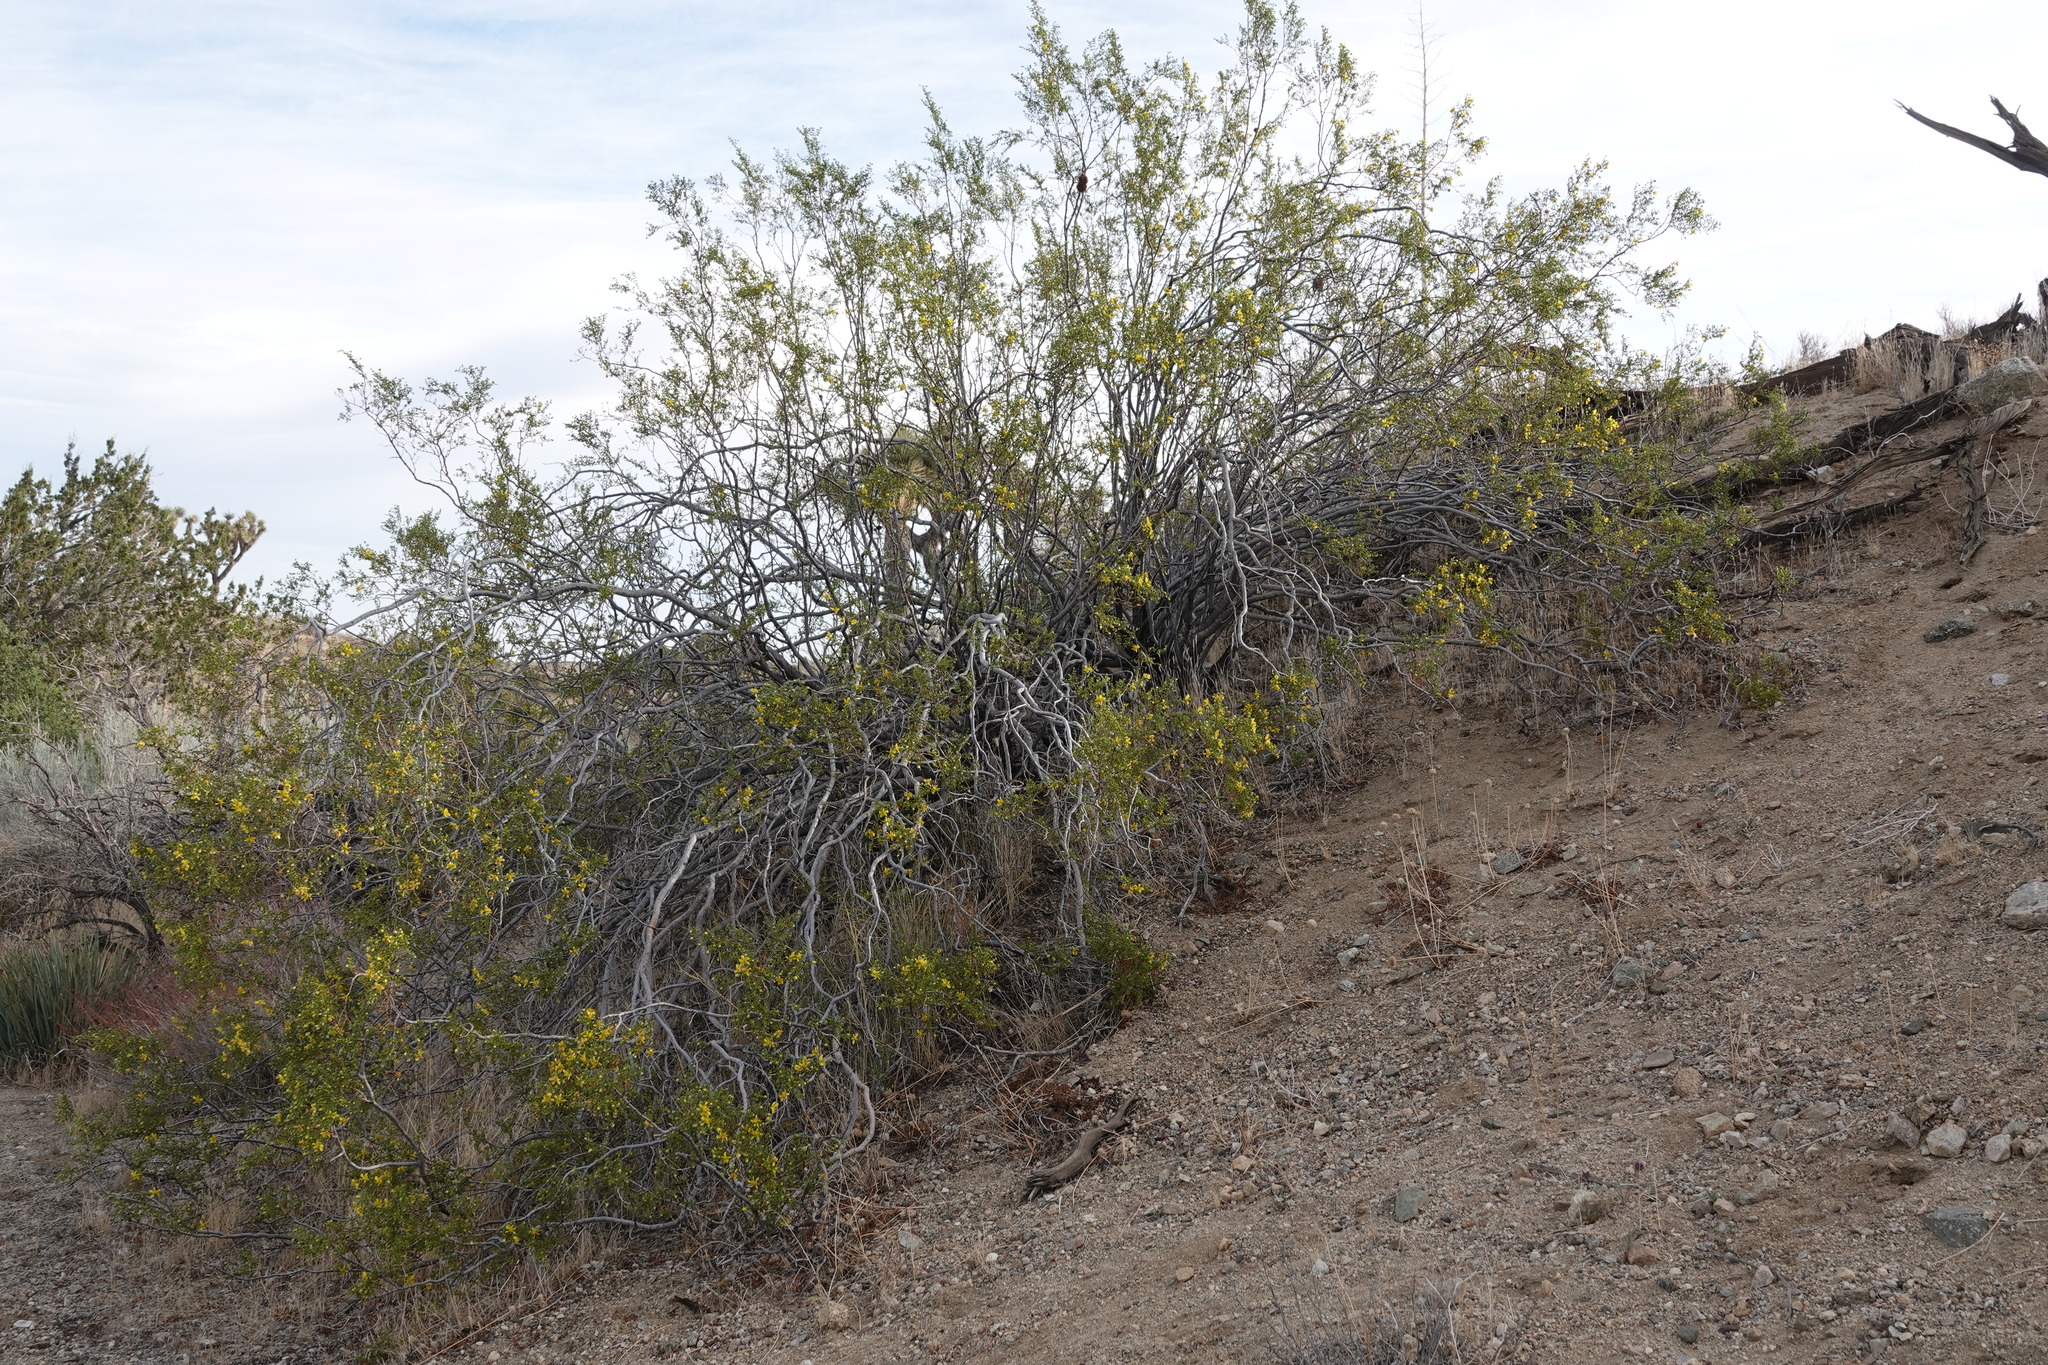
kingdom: Plantae
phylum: Tracheophyta
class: Magnoliopsida
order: Zygophyllales
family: Zygophyllaceae
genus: Larrea
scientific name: Larrea tridentata
